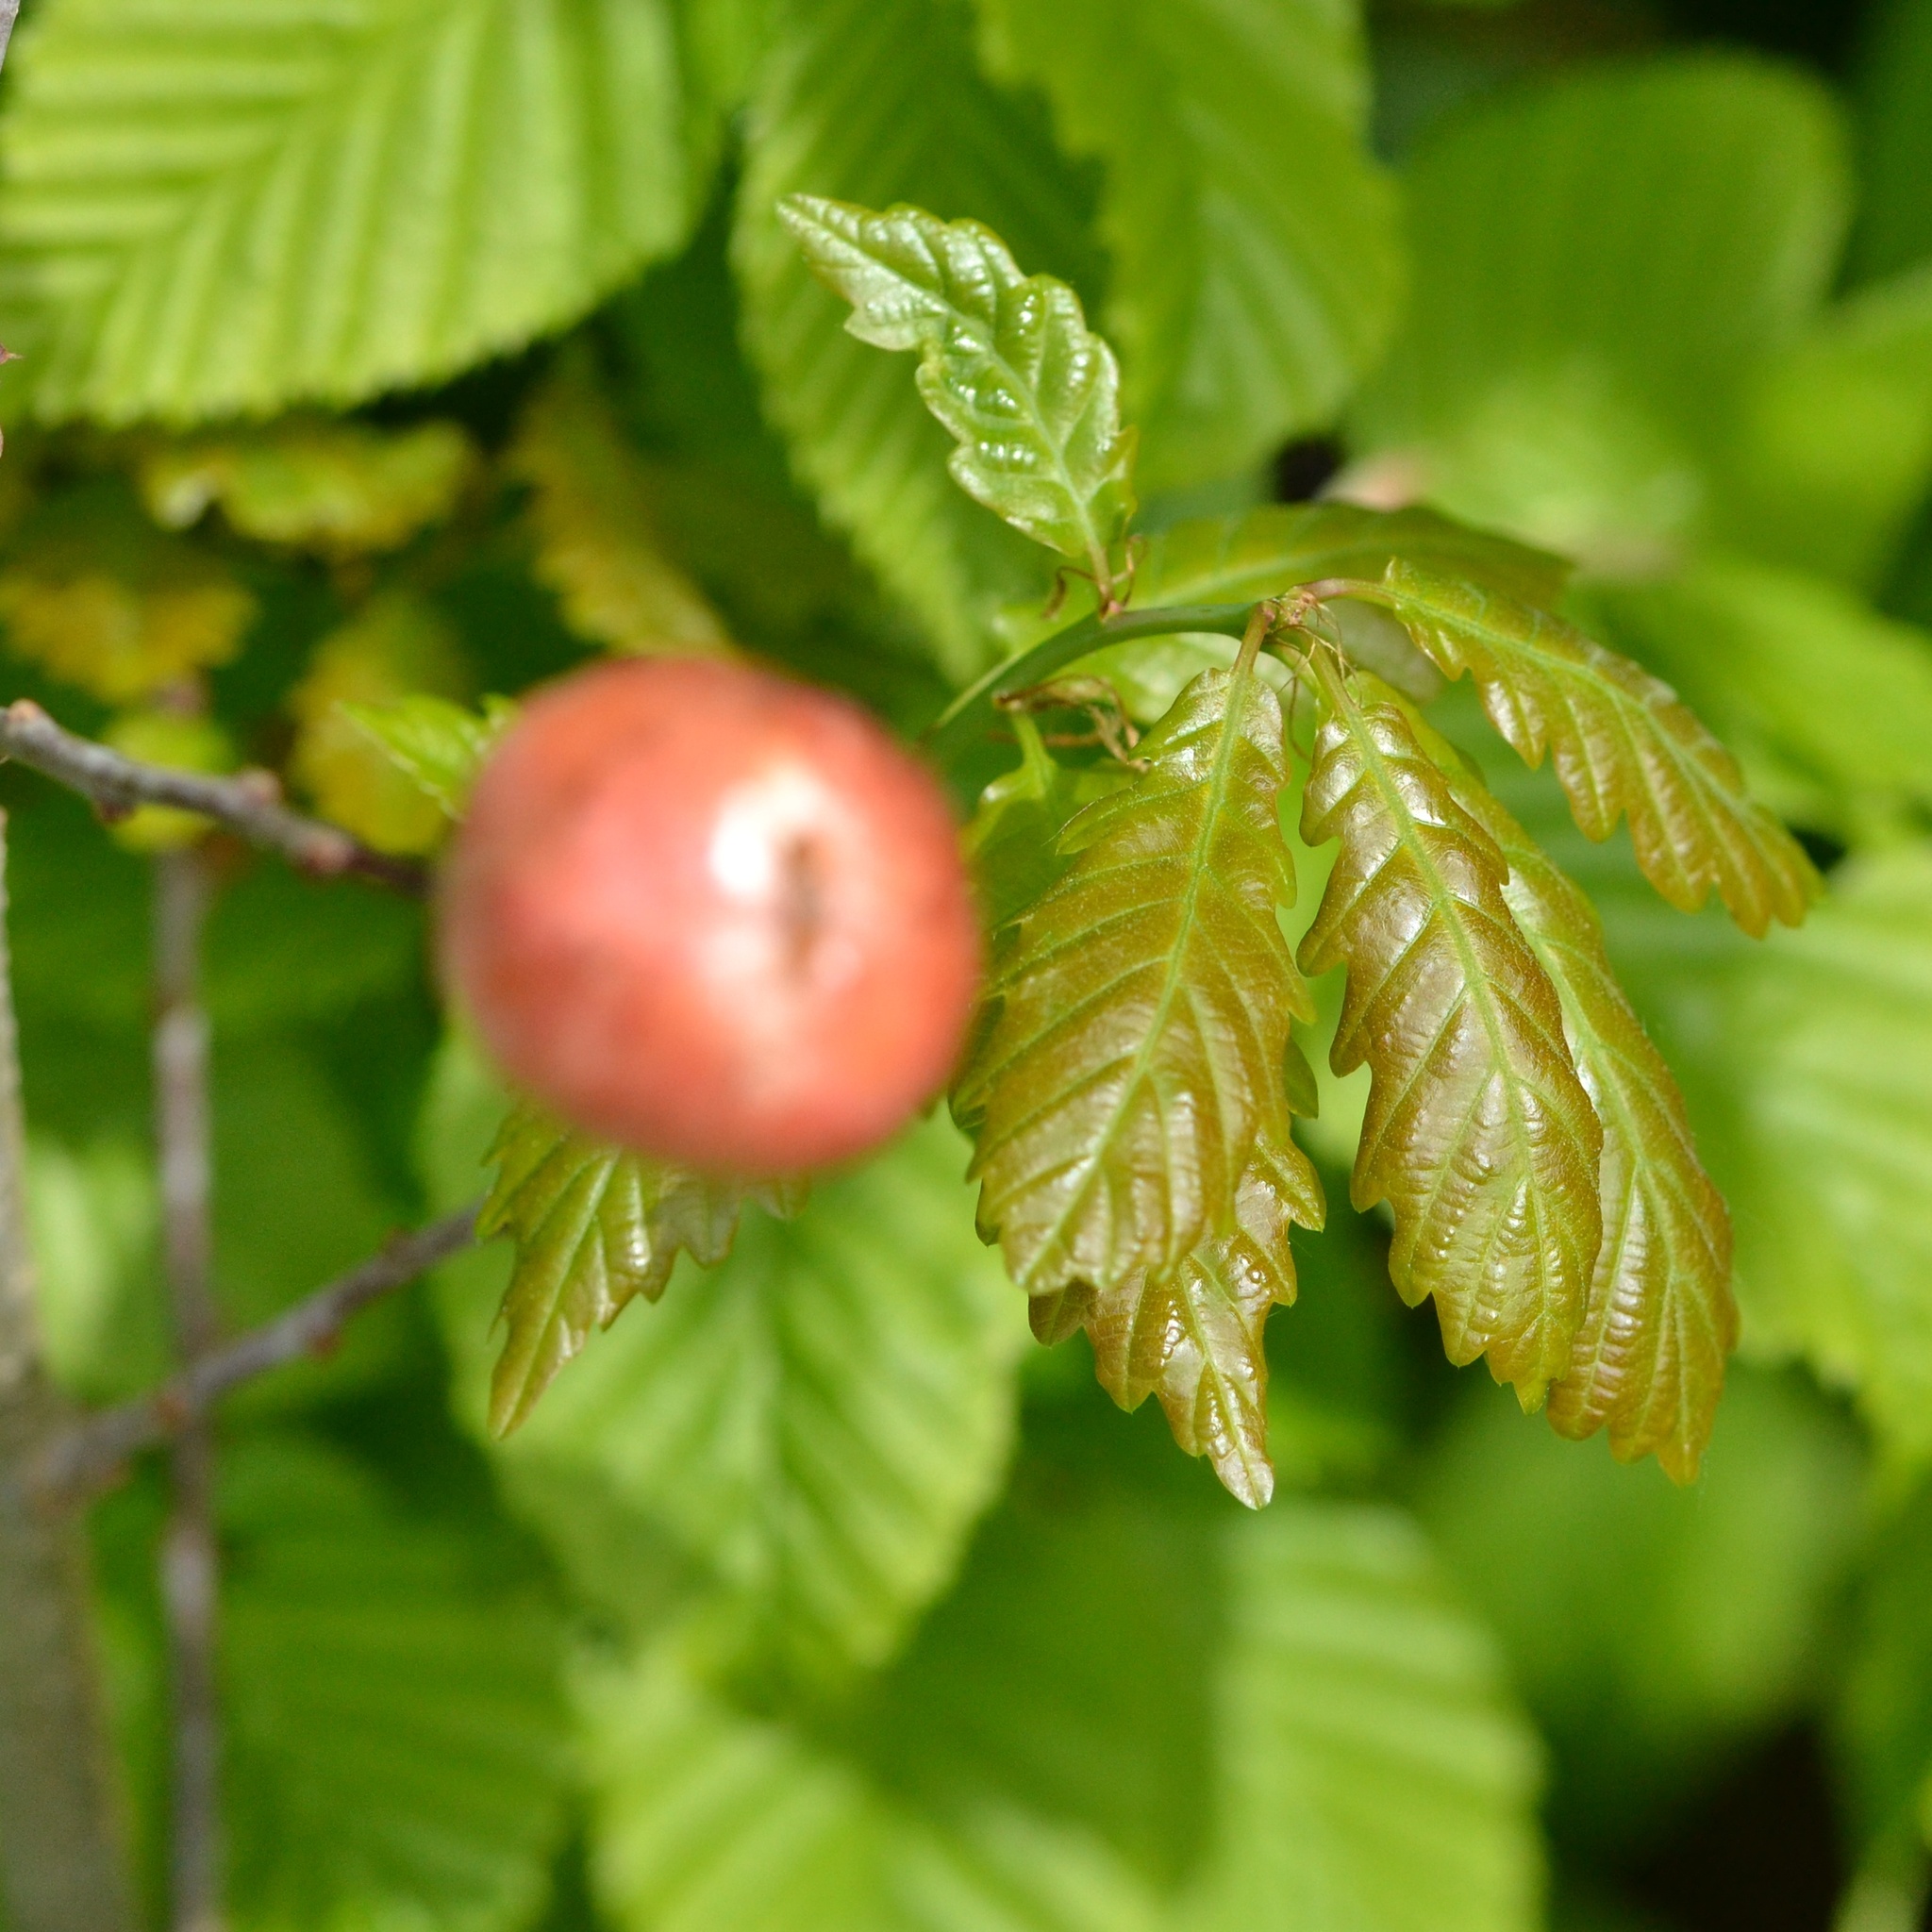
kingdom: Animalia
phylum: Arthropoda
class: Insecta
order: Hymenoptera
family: Cynipidae
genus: Biorhiza
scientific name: Biorhiza pallida
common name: Oak apple
